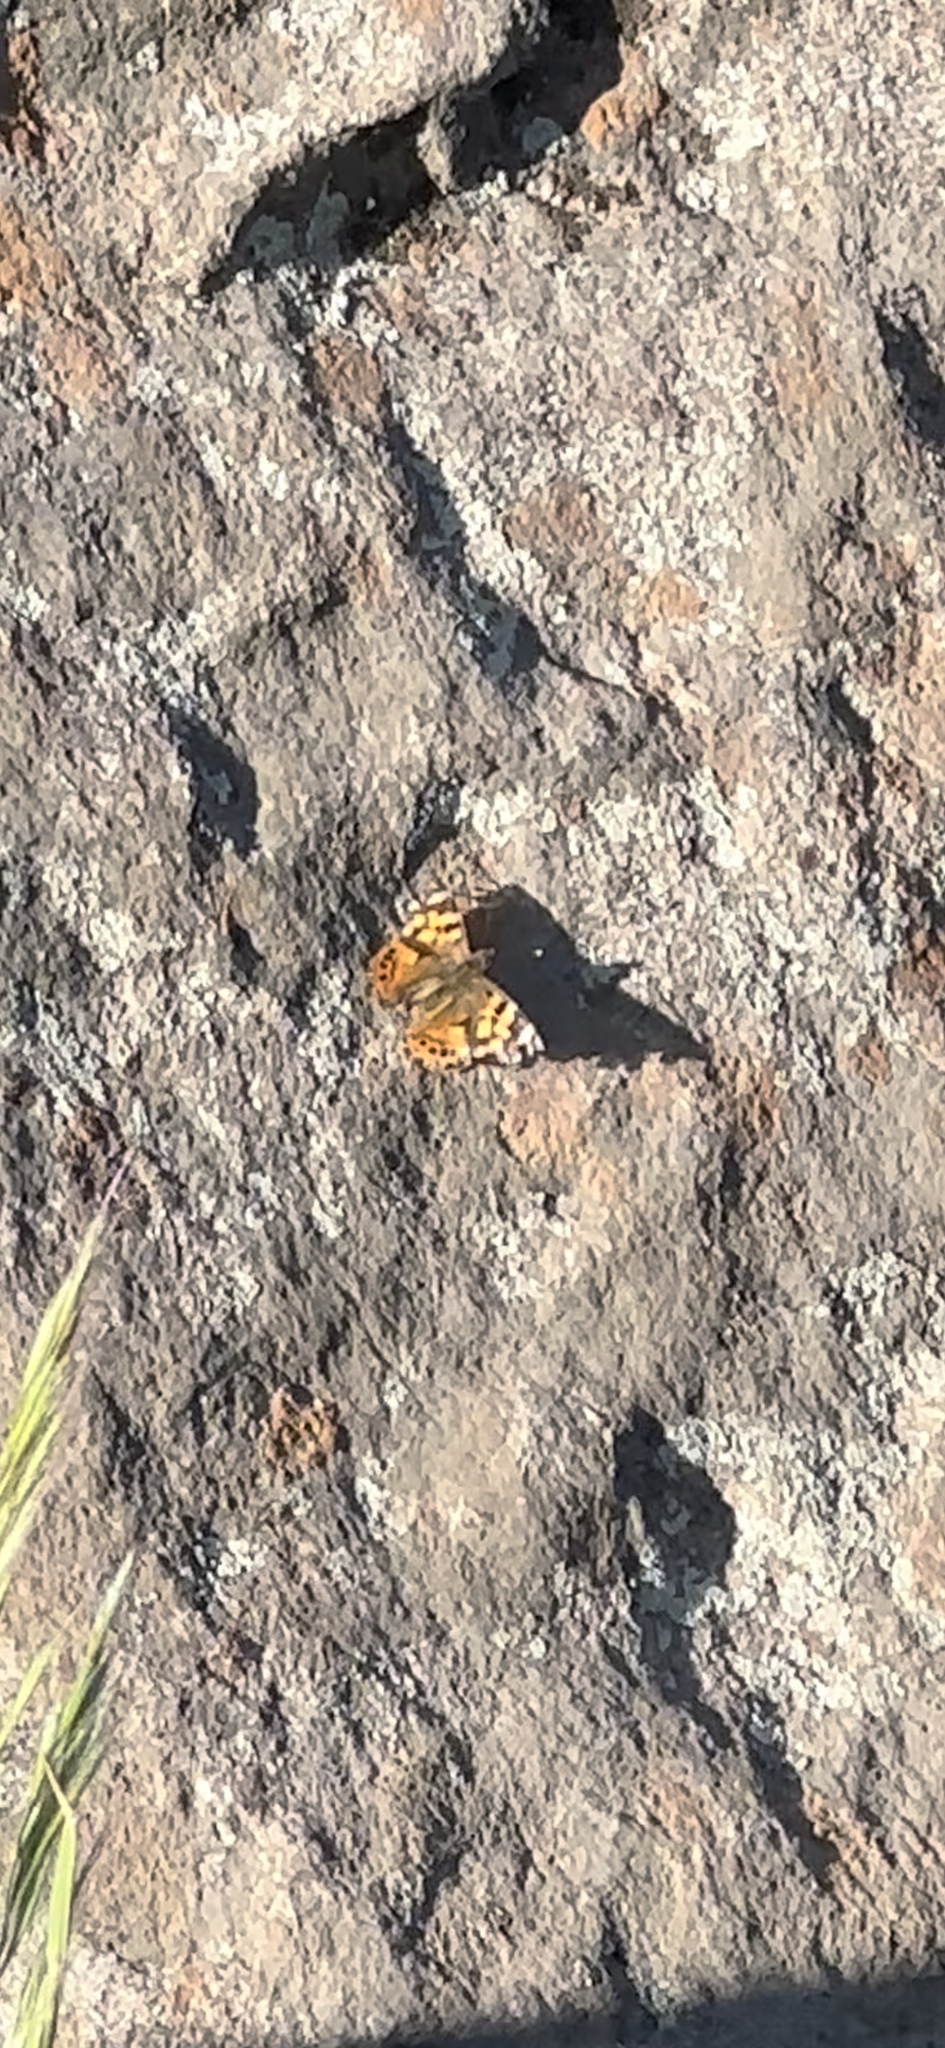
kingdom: Animalia
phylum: Arthropoda
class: Insecta
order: Lepidoptera
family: Nymphalidae
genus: Vanessa
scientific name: Vanessa carye
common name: Subtropical lady
